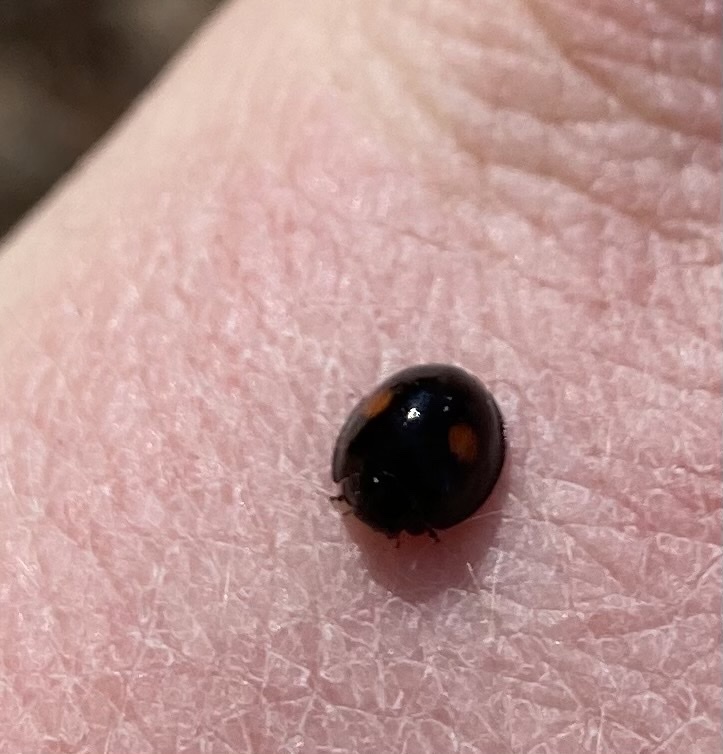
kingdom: Animalia
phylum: Arthropoda
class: Insecta
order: Coleoptera
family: Coccinellidae
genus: Chilocorus
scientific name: Chilocorus stigma
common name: Twicestabbed lady beetle
